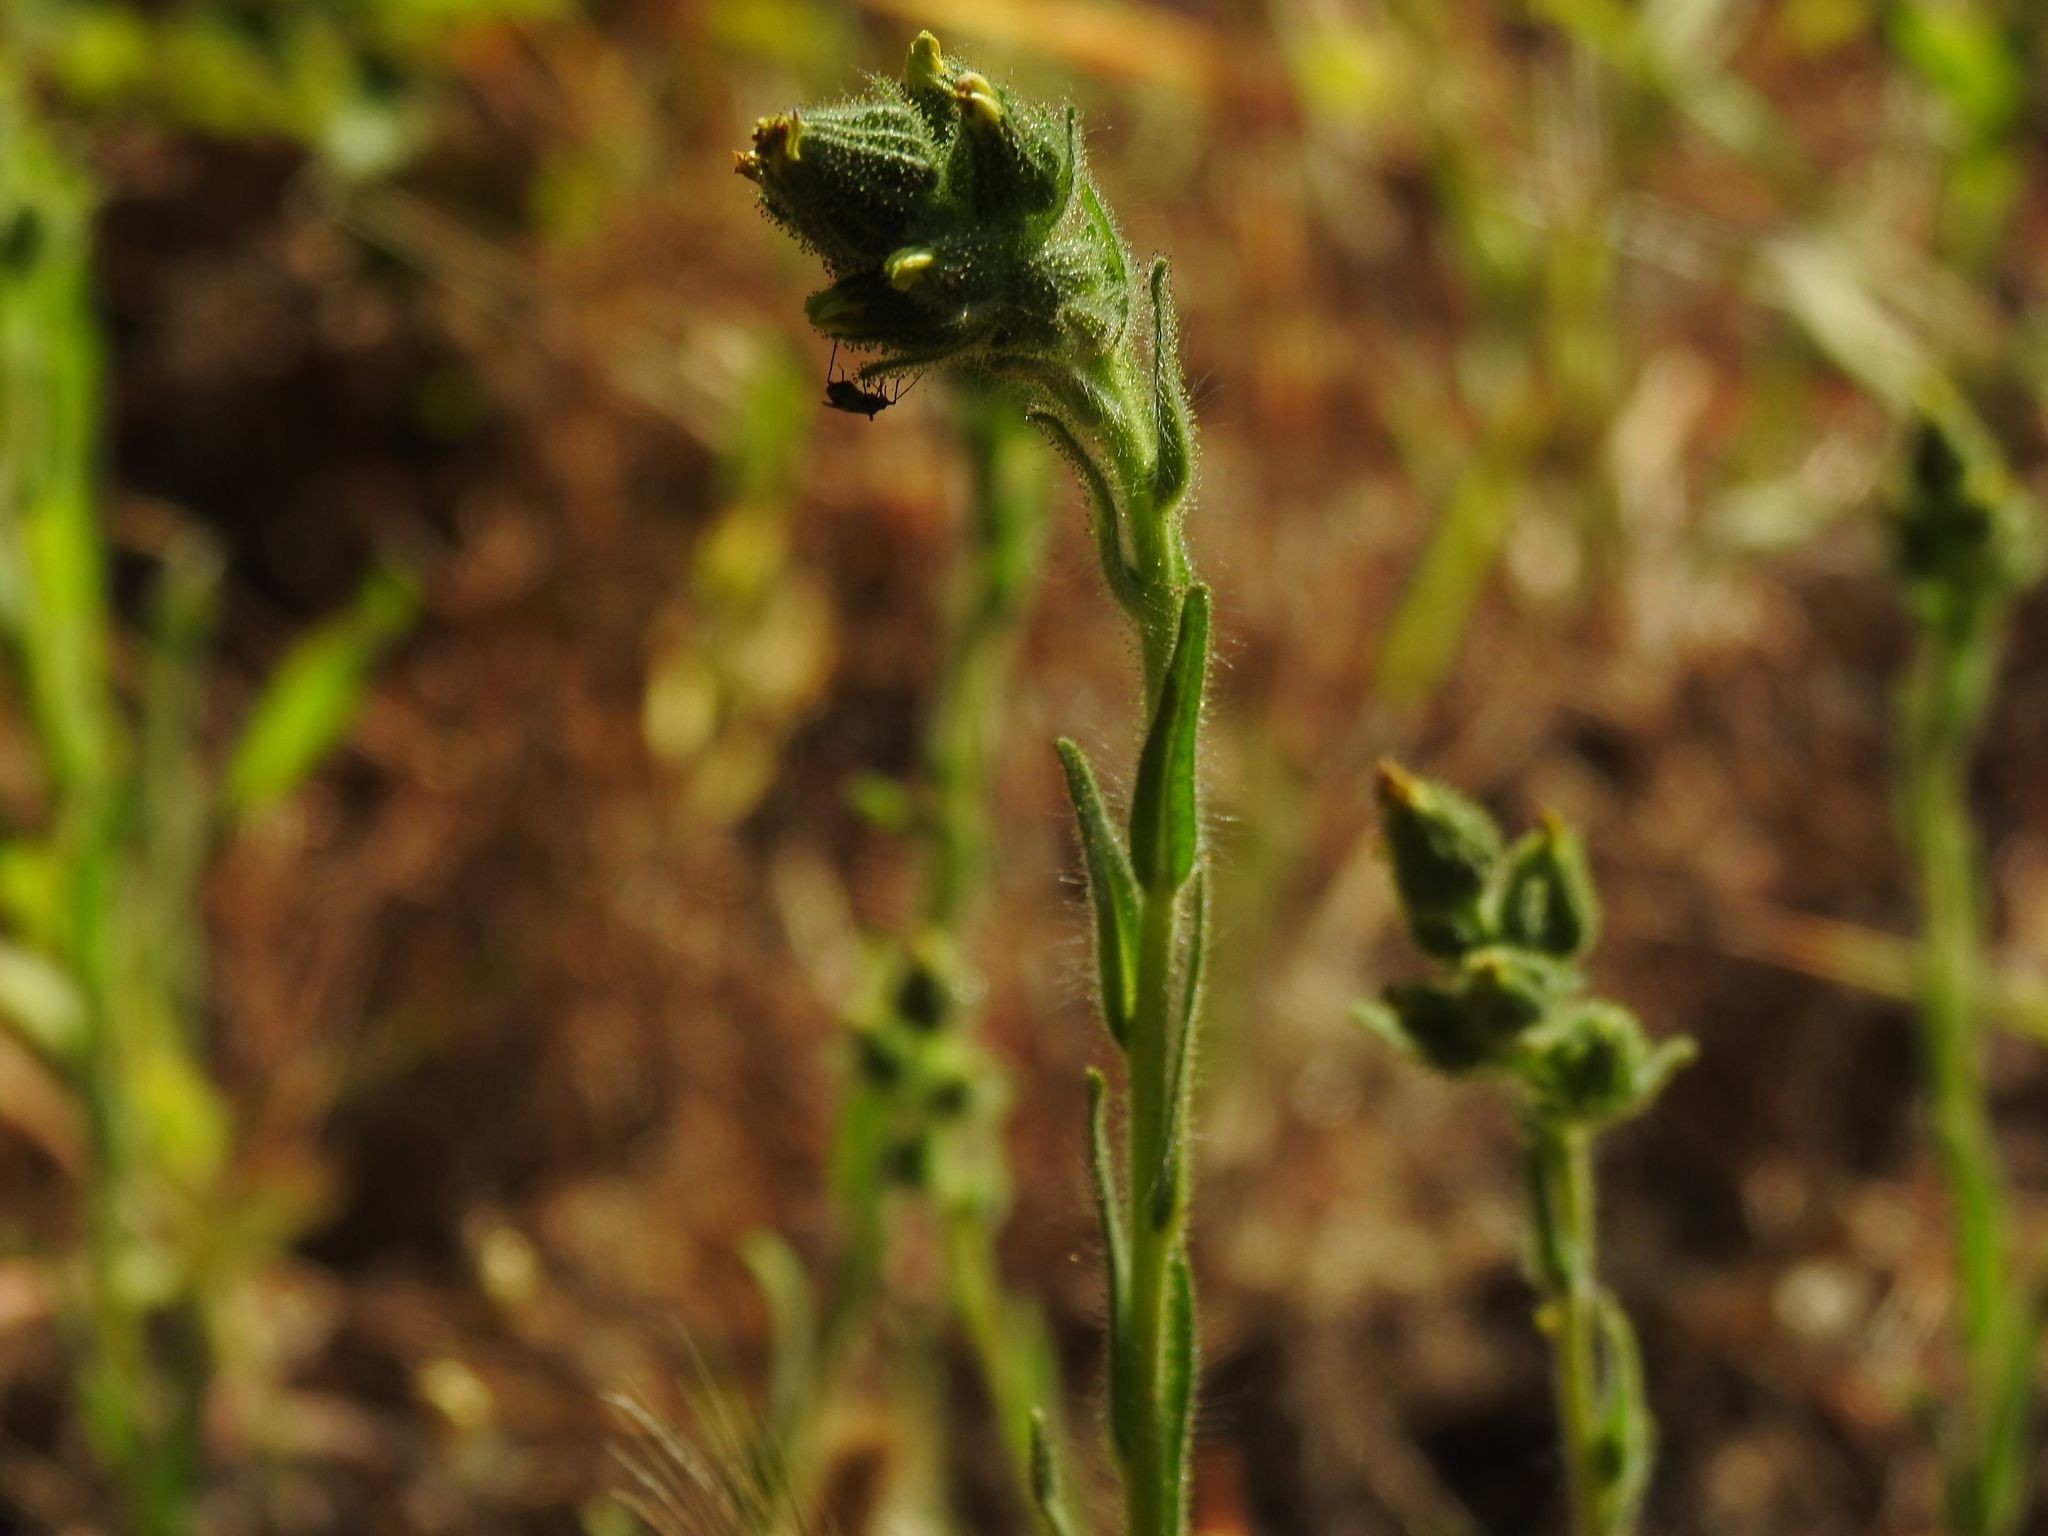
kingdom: Plantae
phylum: Tracheophyta
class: Magnoliopsida
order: Asterales
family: Asteraceae
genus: Madia
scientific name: Madia sativa
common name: Coast tarweed
